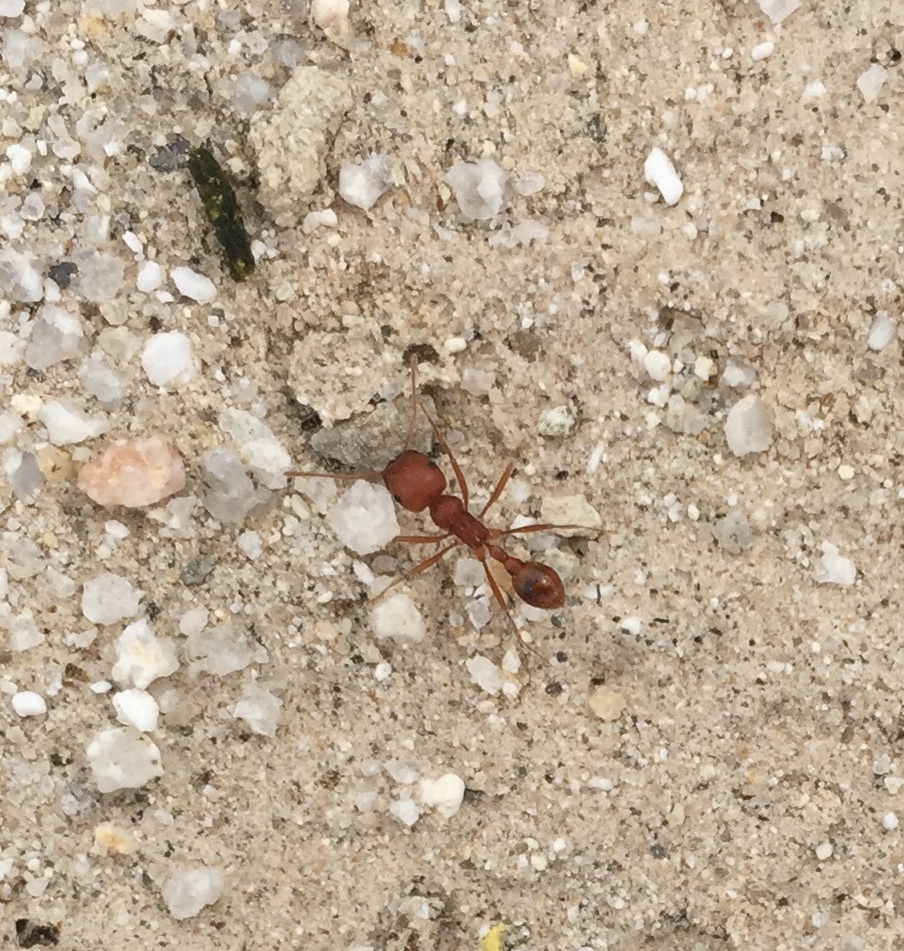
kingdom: Animalia
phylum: Arthropoda
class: Insecta
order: Hymenoptera
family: Formicidae
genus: Pogonomyrmex
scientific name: Pogonomyrmex californicus
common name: California harvester ant
